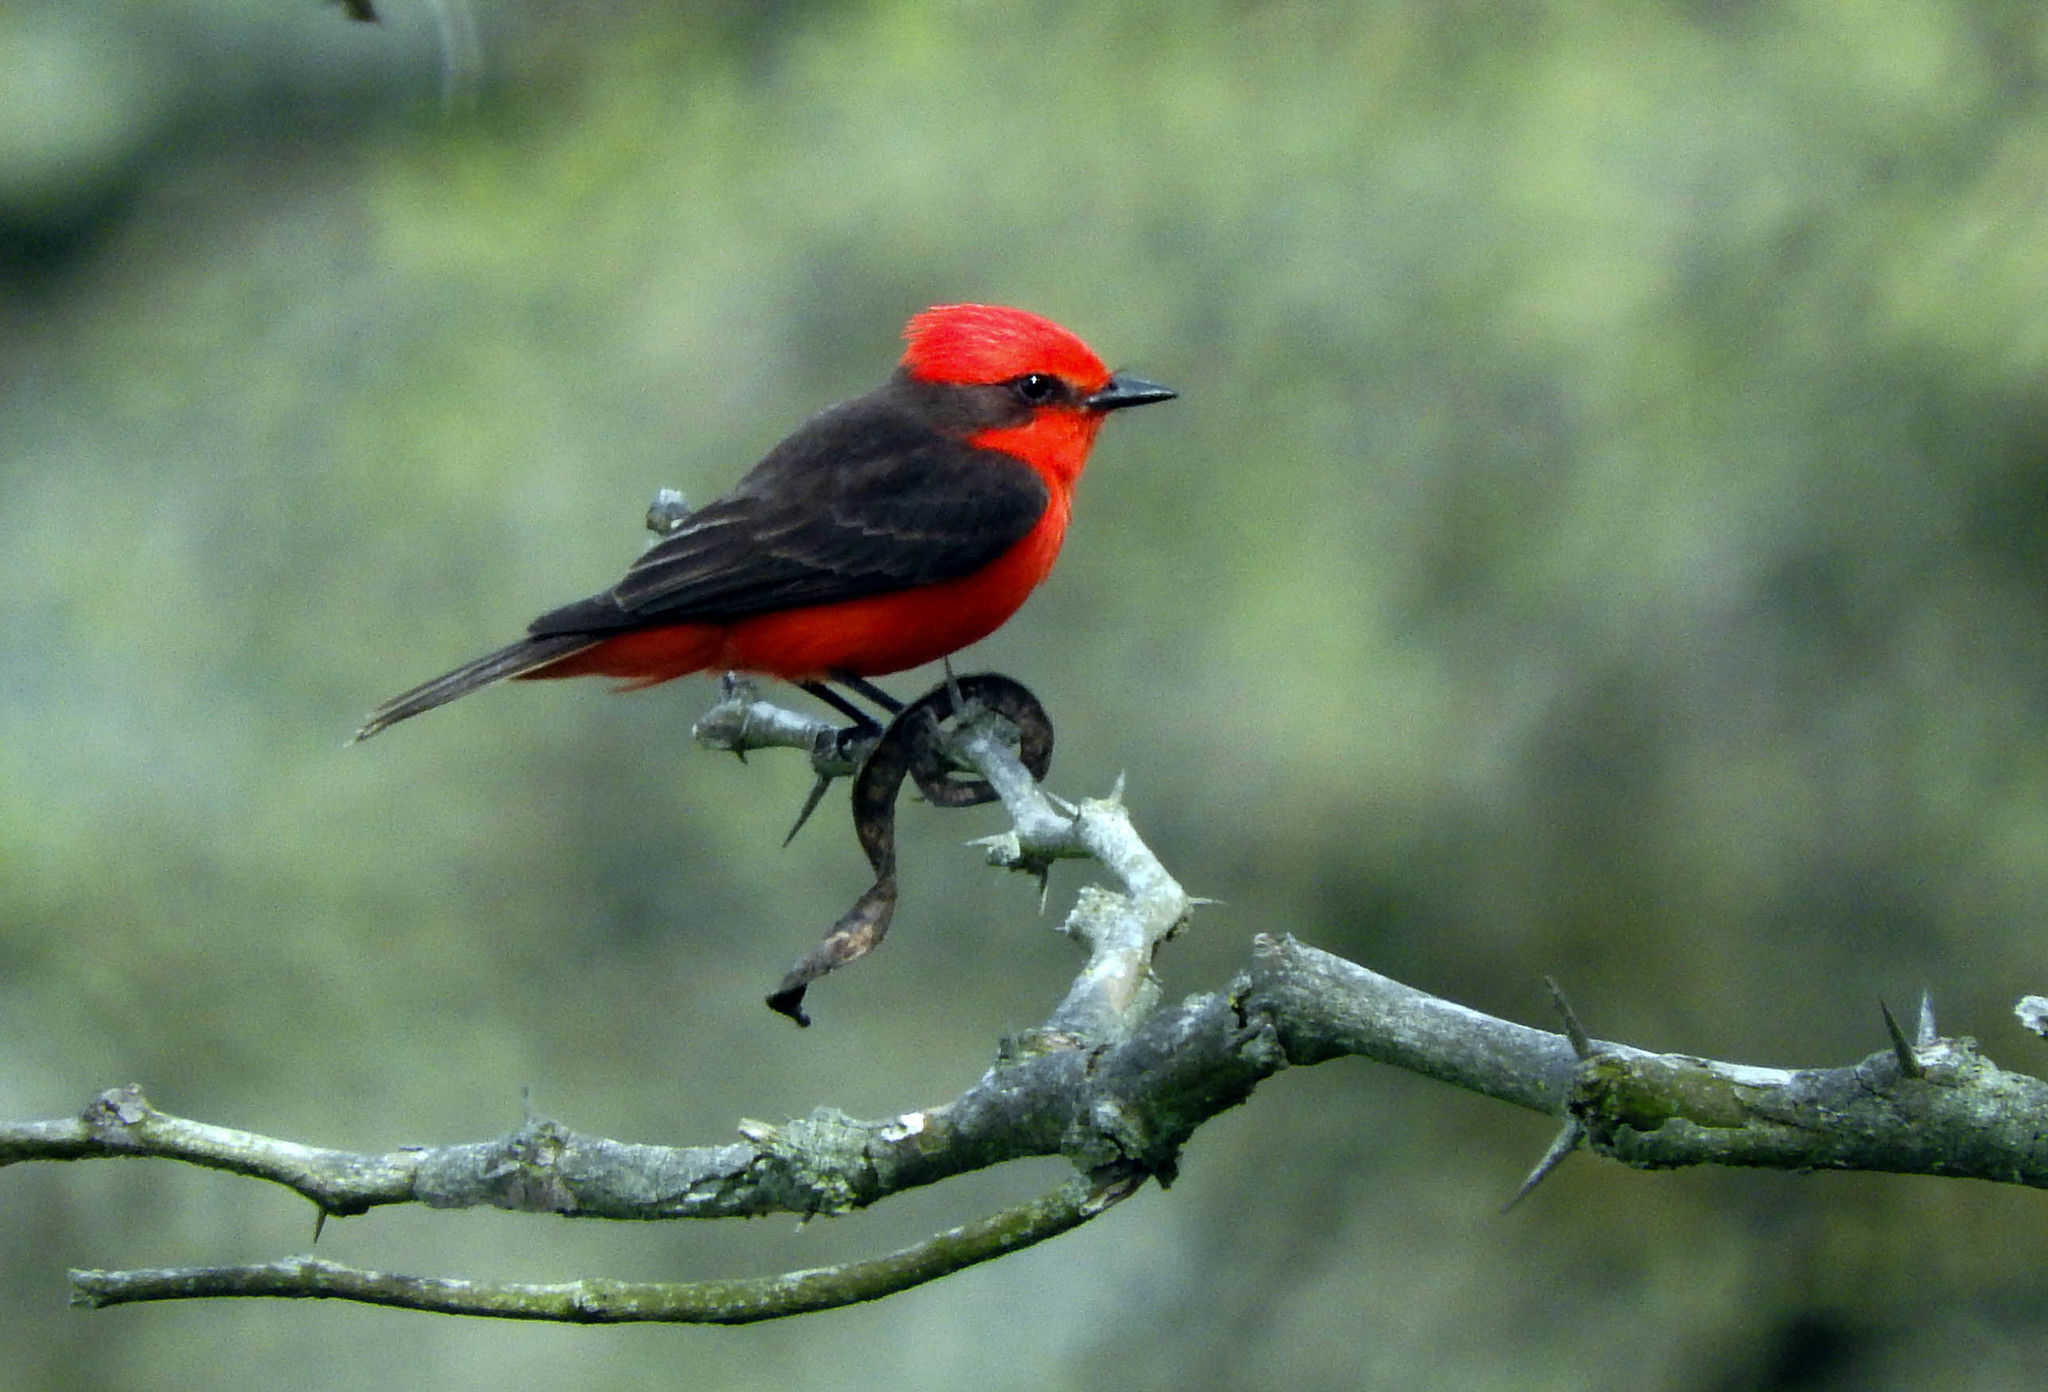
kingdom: Animalia
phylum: Chordata
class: Aves
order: Passeriformes
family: Tyrannidae
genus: Pyrocephalus
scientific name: Pyrocephalus rubinus
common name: Vermilion flycatcher
